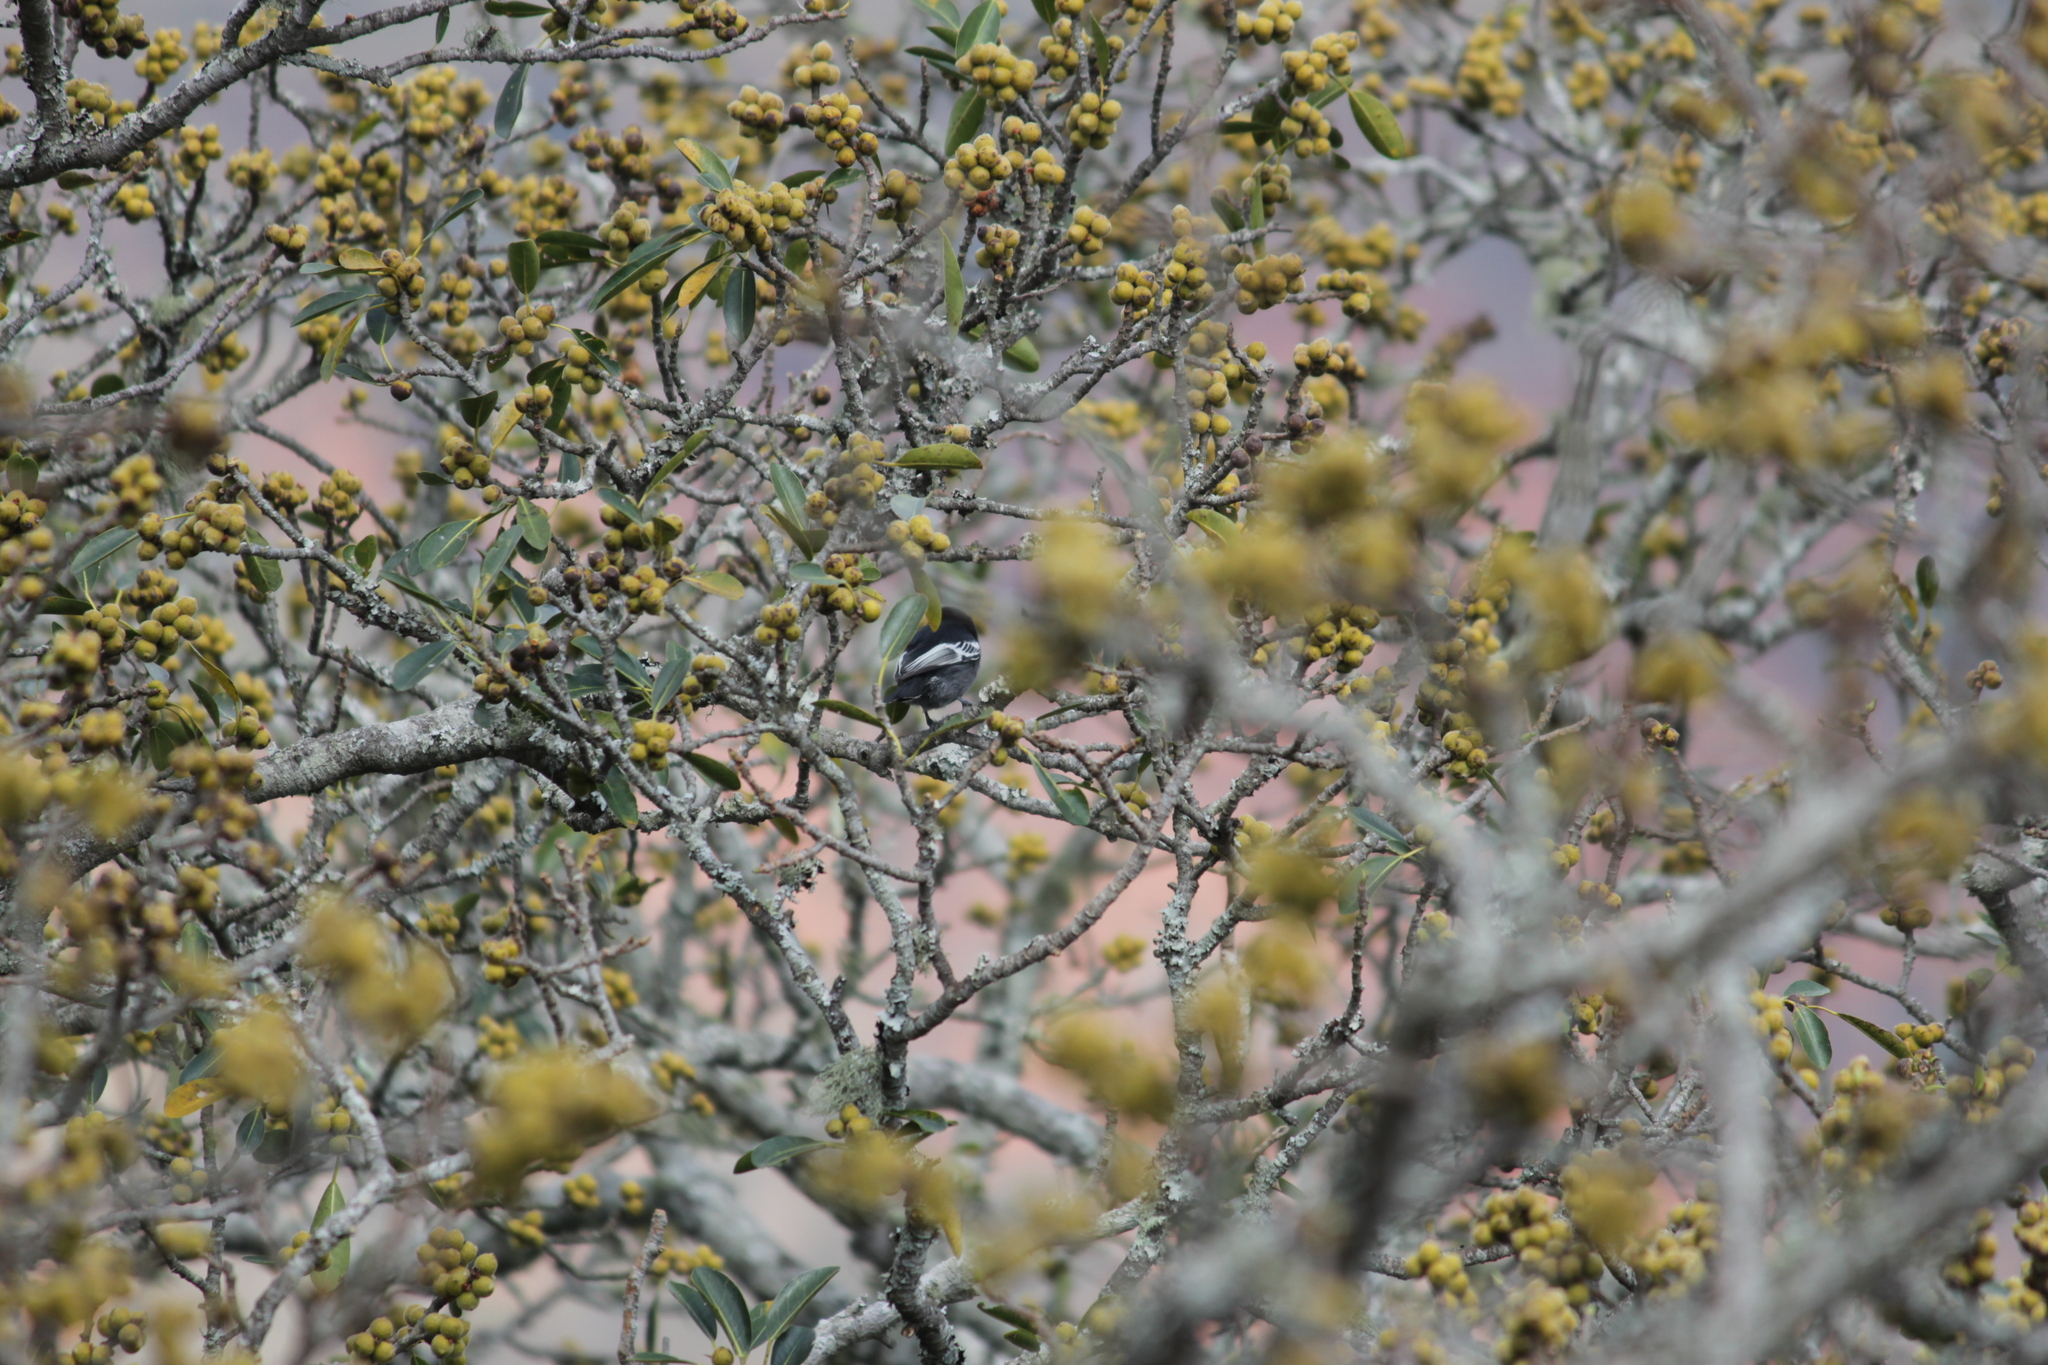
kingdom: Animalia
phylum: Chordata
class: Aves
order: Passeriformes
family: Paridae
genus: Parus
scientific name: Parus niger
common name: Southern black tit
